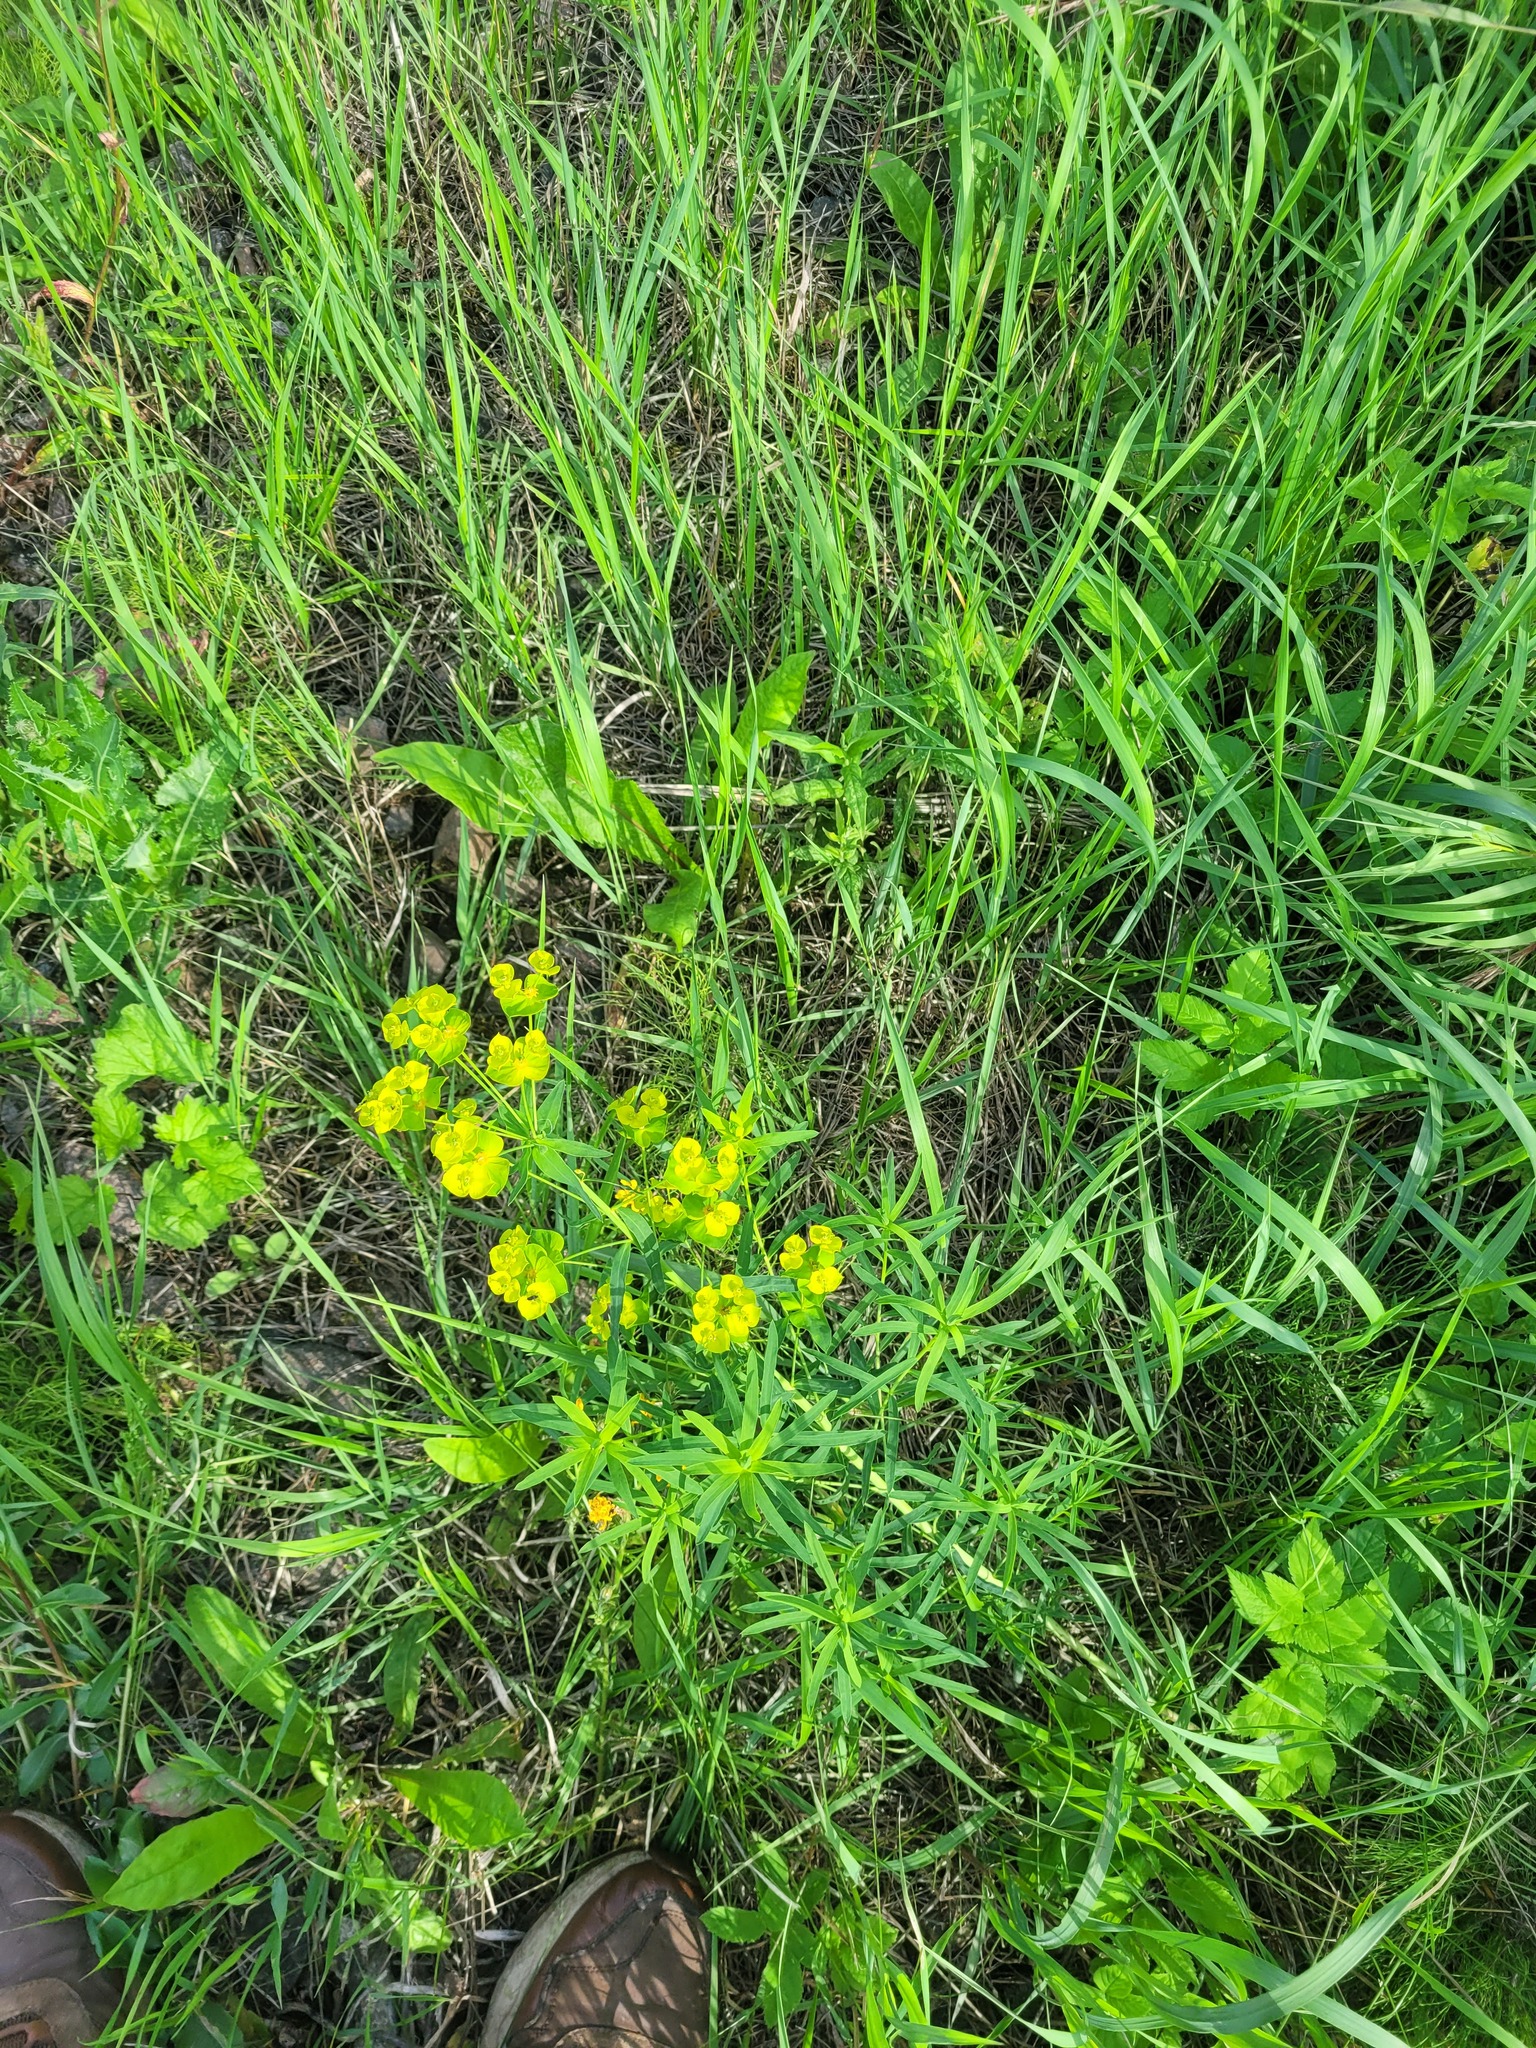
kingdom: Plantae
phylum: Tracheophyta
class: Magnoliopsida
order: Malpighiales
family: Euphorbiaceae
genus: Euphorbia
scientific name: Euphorbia virgata
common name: Leafy spurge
